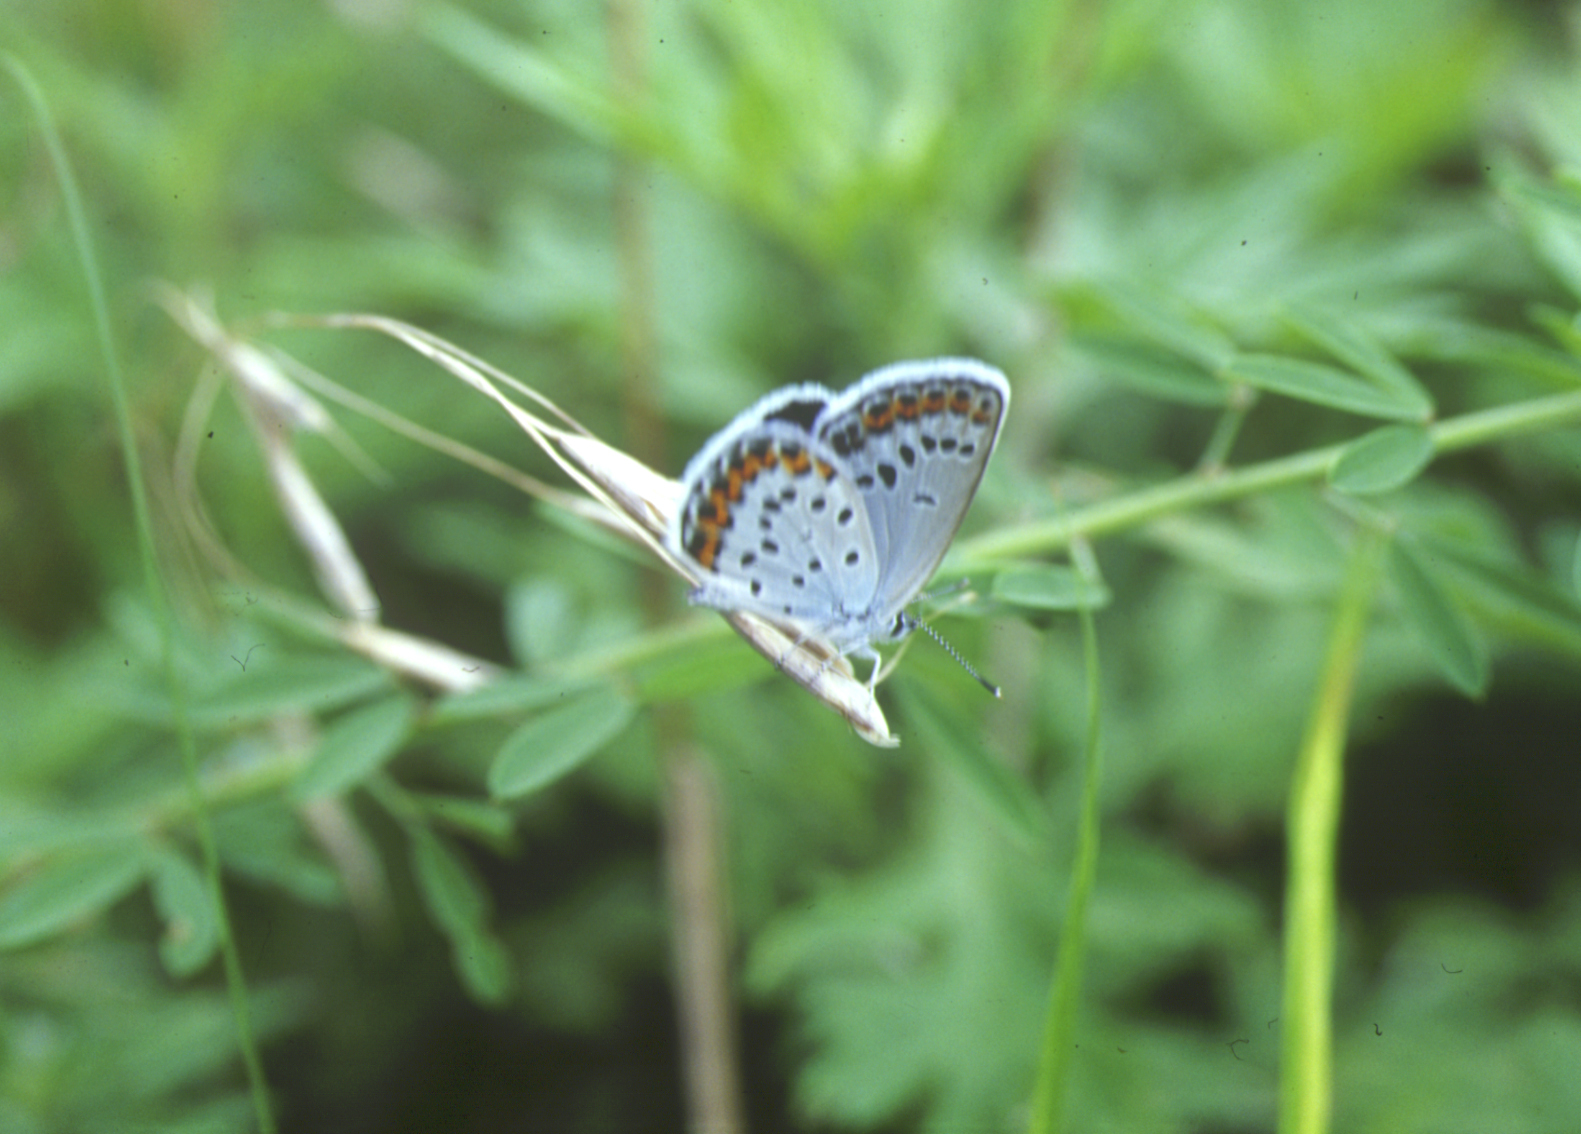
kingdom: Animalia
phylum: Arthropoda
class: Insecta
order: Lepidoptera
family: Lycaenidae
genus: Plebejus
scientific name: Plebejus argyrognomon
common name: Reverdin's blue
